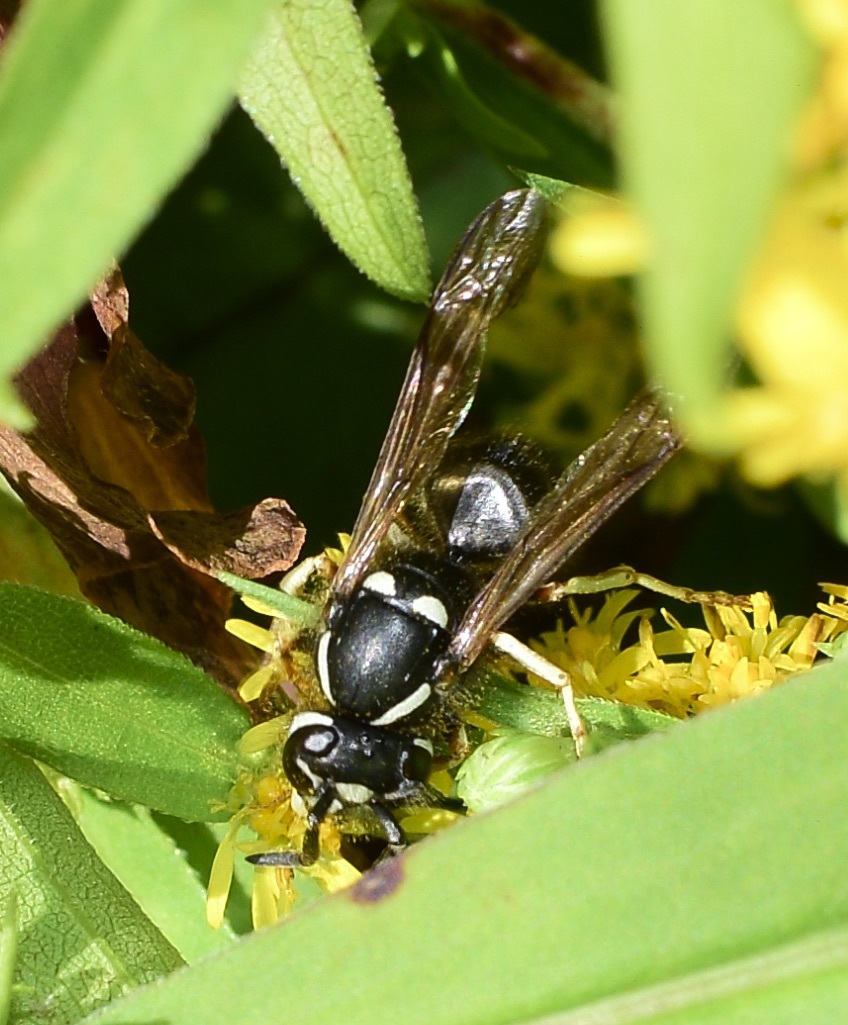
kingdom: Animalia
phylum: Arthropoda
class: Insecta
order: Hymenoptera
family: Vespidae
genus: Vespula
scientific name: Vespula consobrina
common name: Blackjacket
